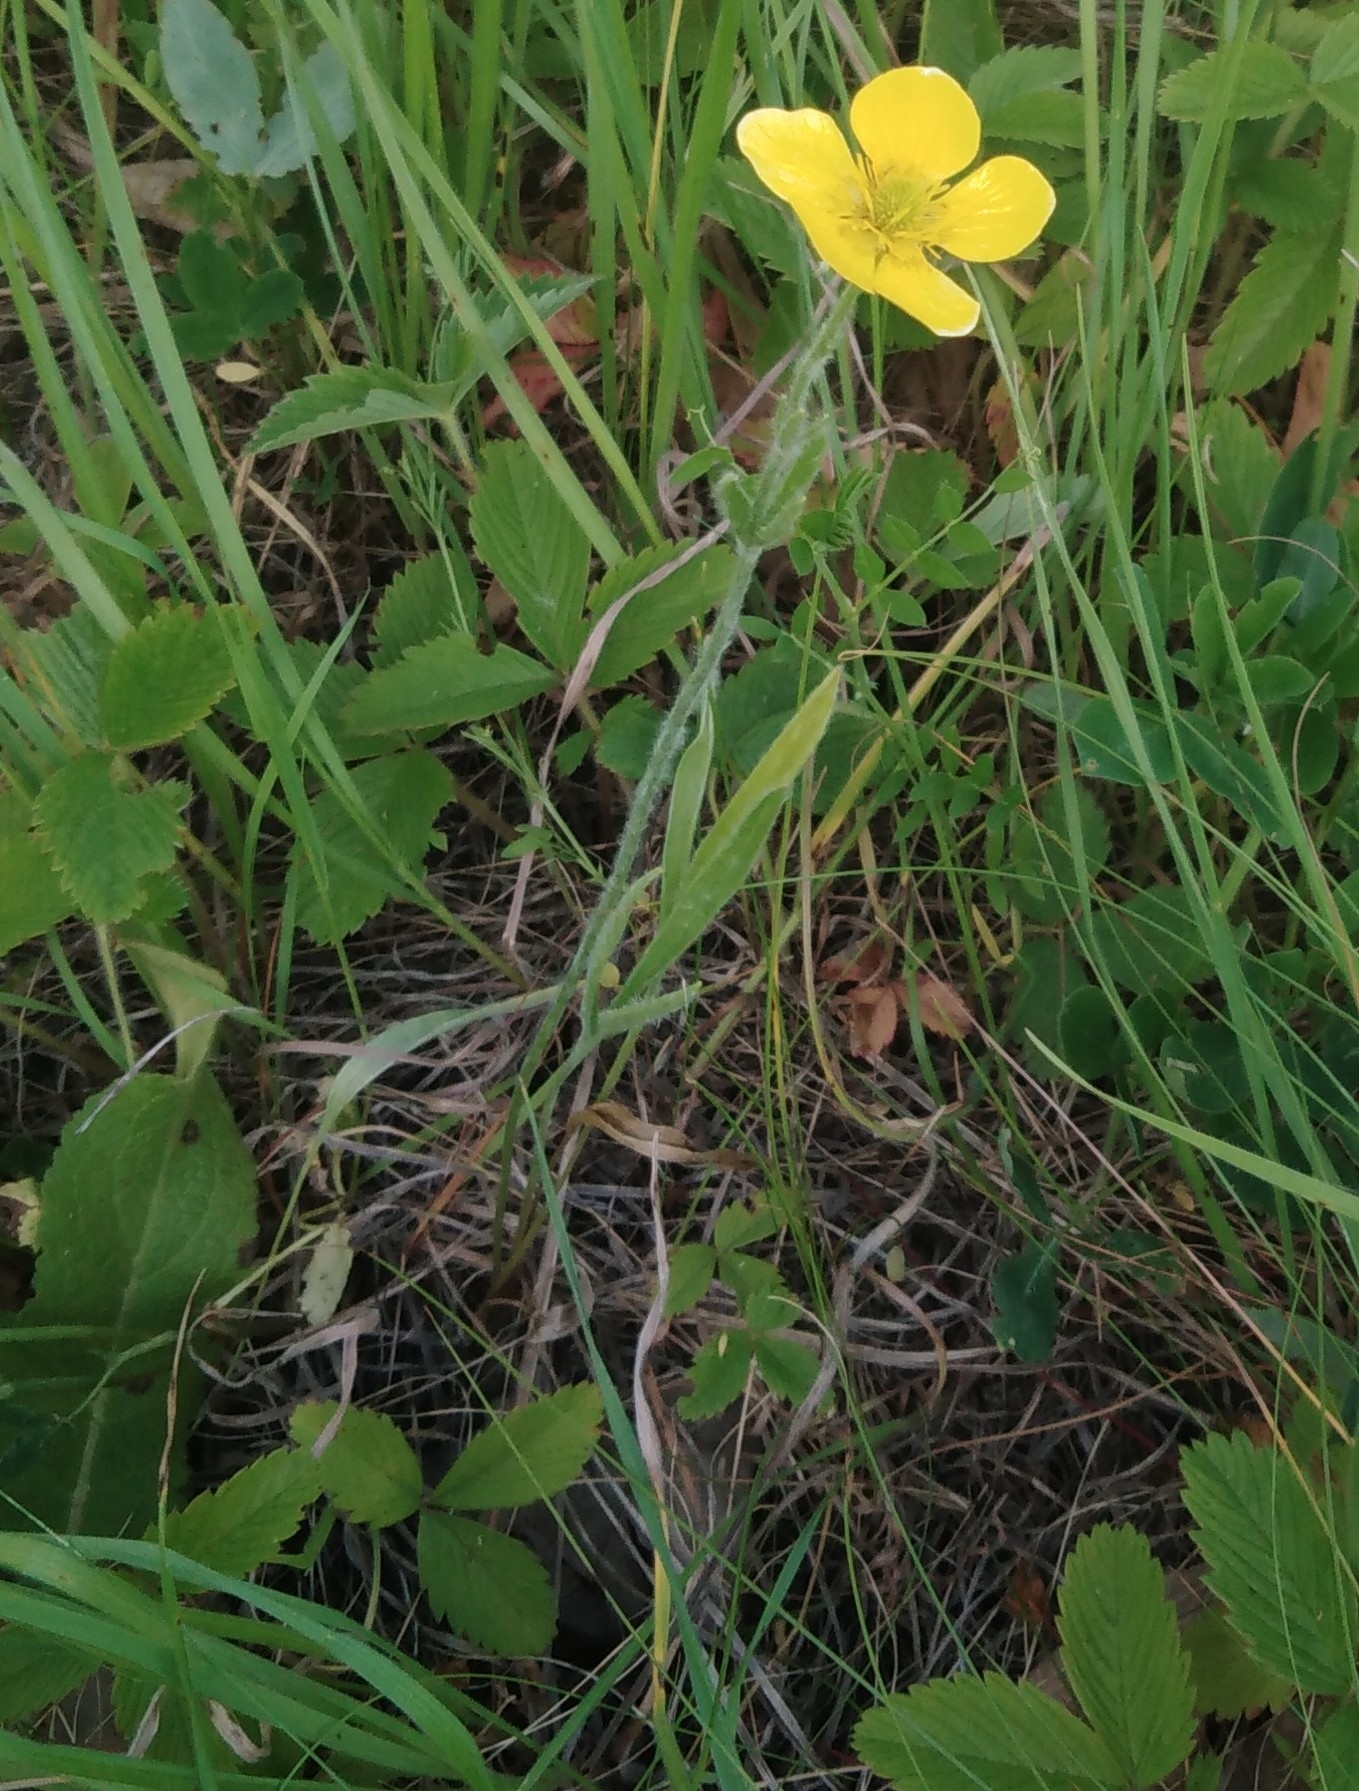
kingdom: Plantae
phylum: Tracheophyta
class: Magnoliopsida
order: Ranunculales
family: Ranunculaceae
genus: Ranunculus
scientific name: Ranunculus illyricus
